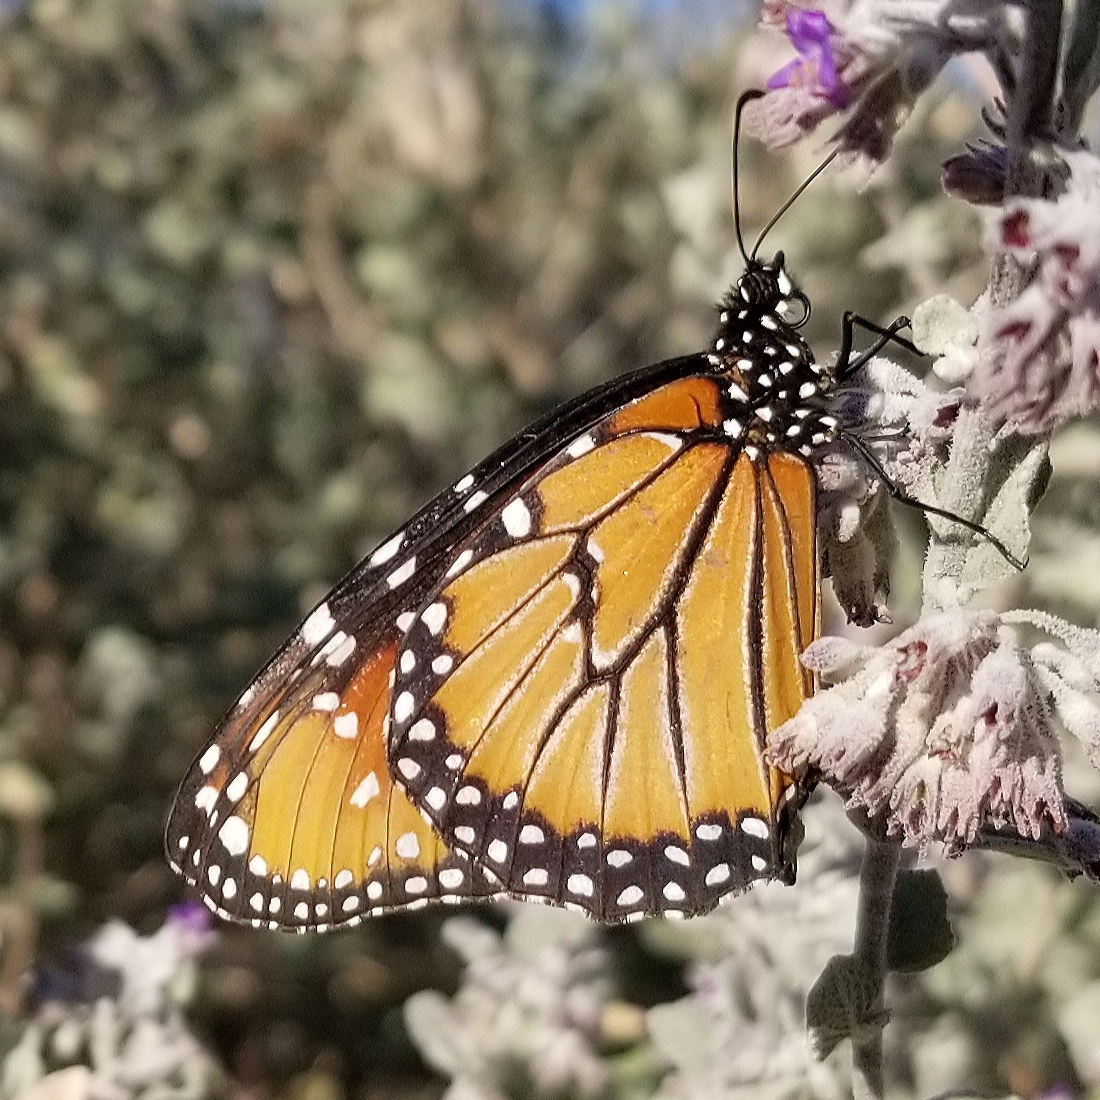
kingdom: Animalia
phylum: Arthropoda
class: Insecta
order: Lepidoptera
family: Nymphalidae
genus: Danaus
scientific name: Danaus gilippus
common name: Queen
